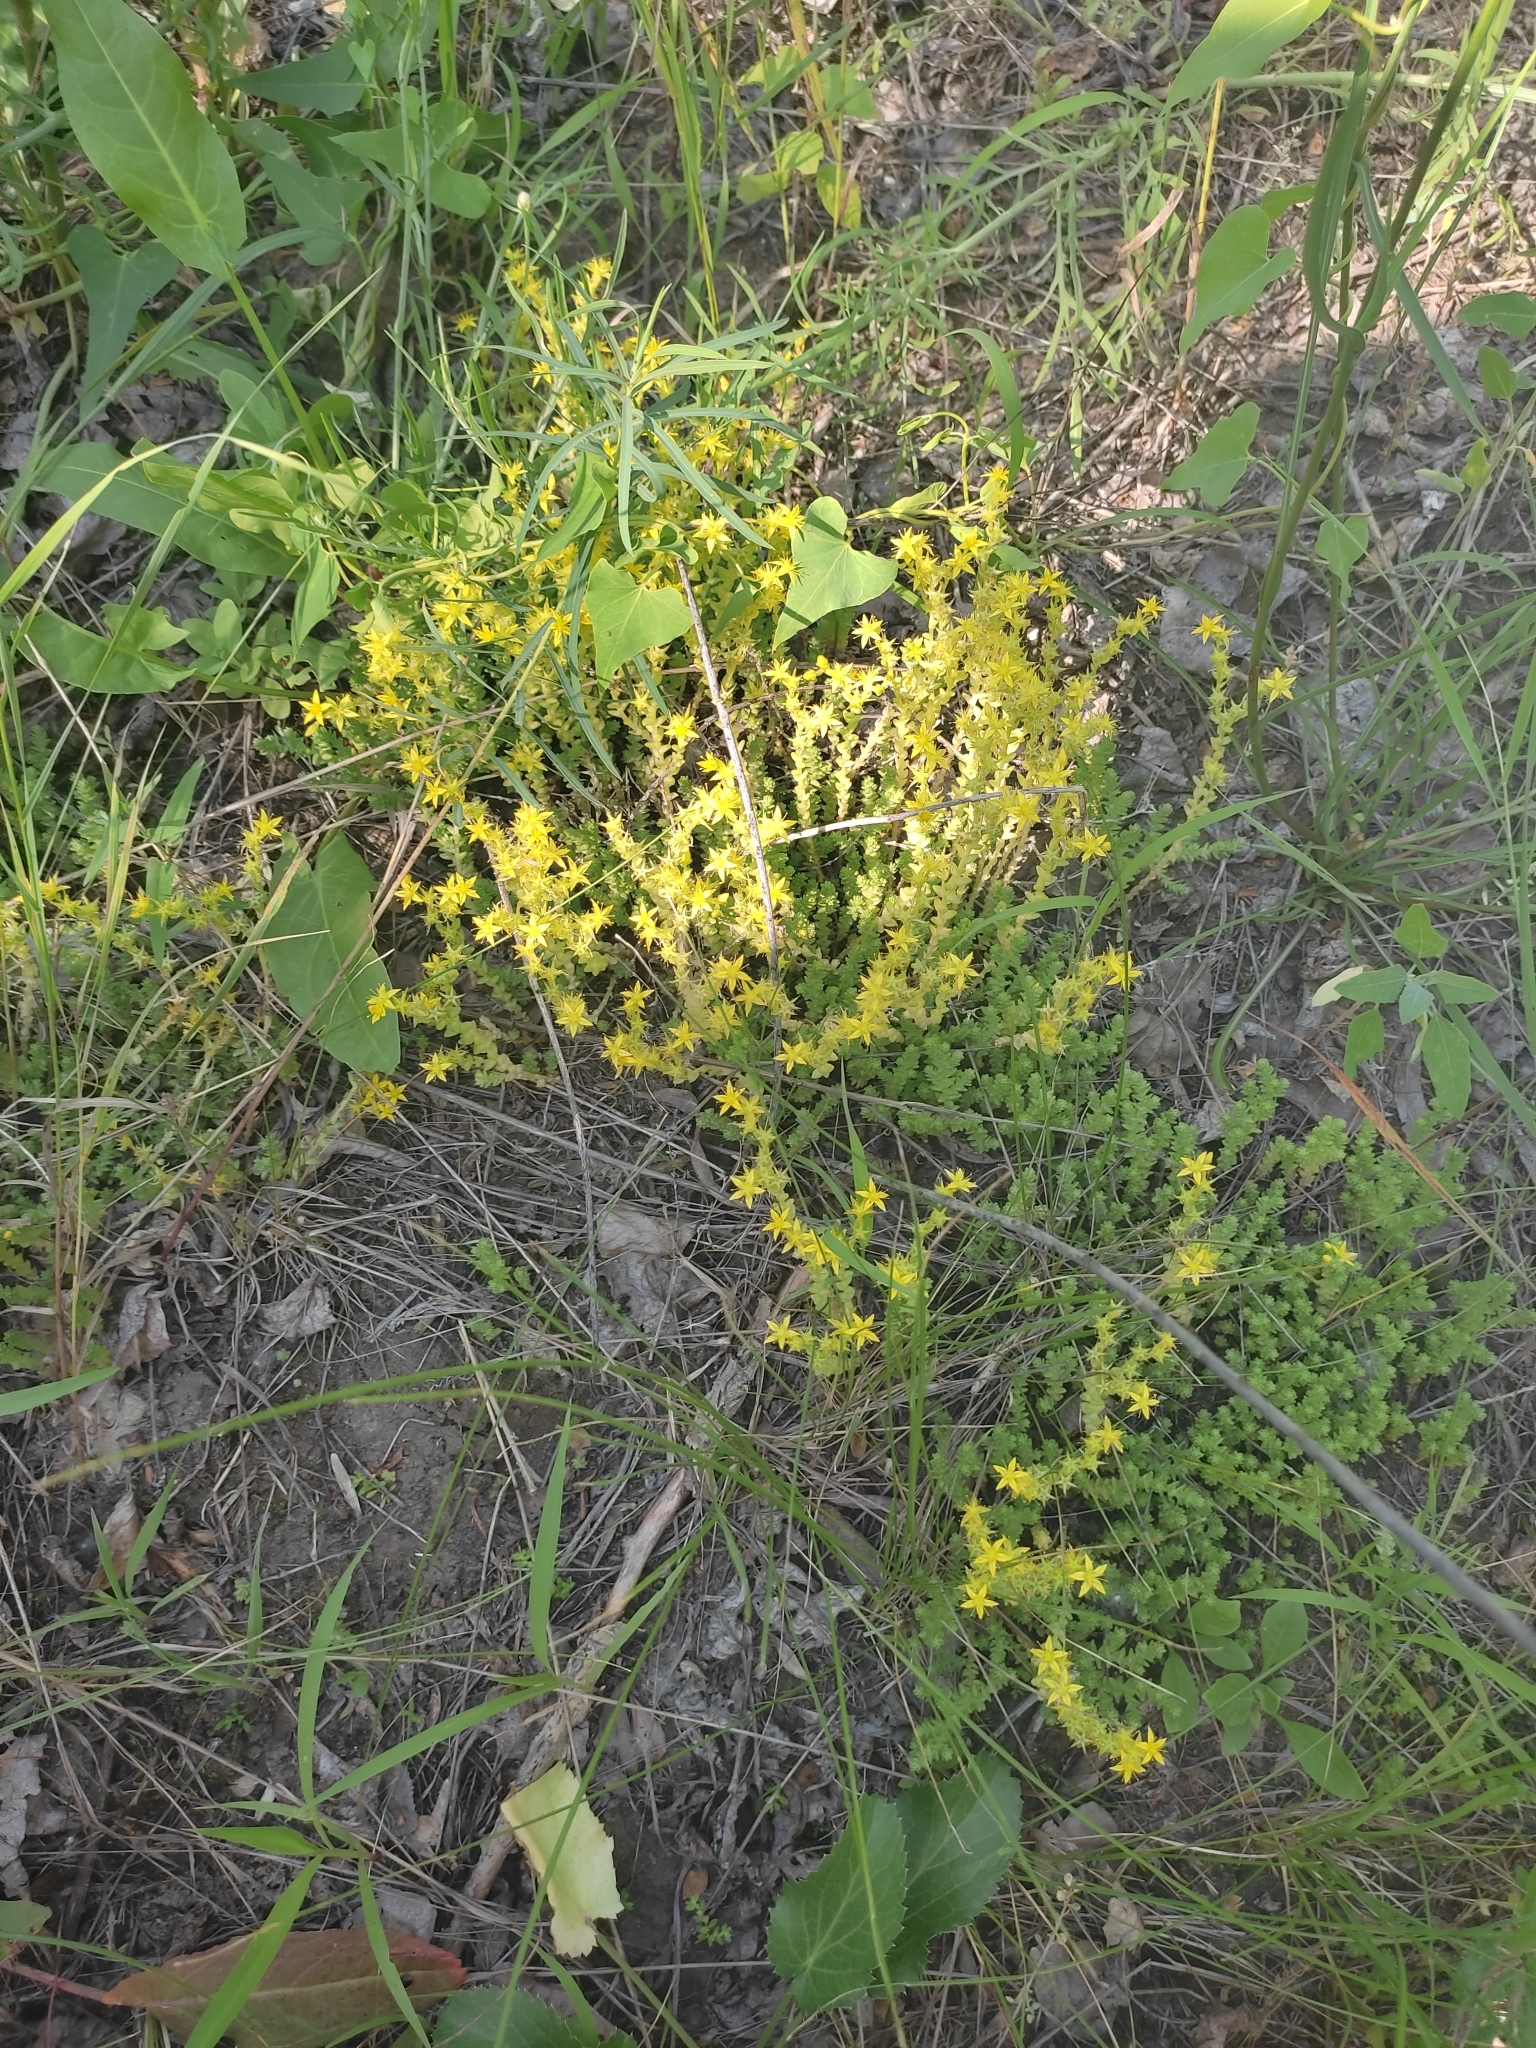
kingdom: Plantae
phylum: Tracheophyta
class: Magnoliopsida
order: Saxifragales
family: Crassulaceae
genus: Sedum
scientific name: Sedum acre
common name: Biting stonecrop
